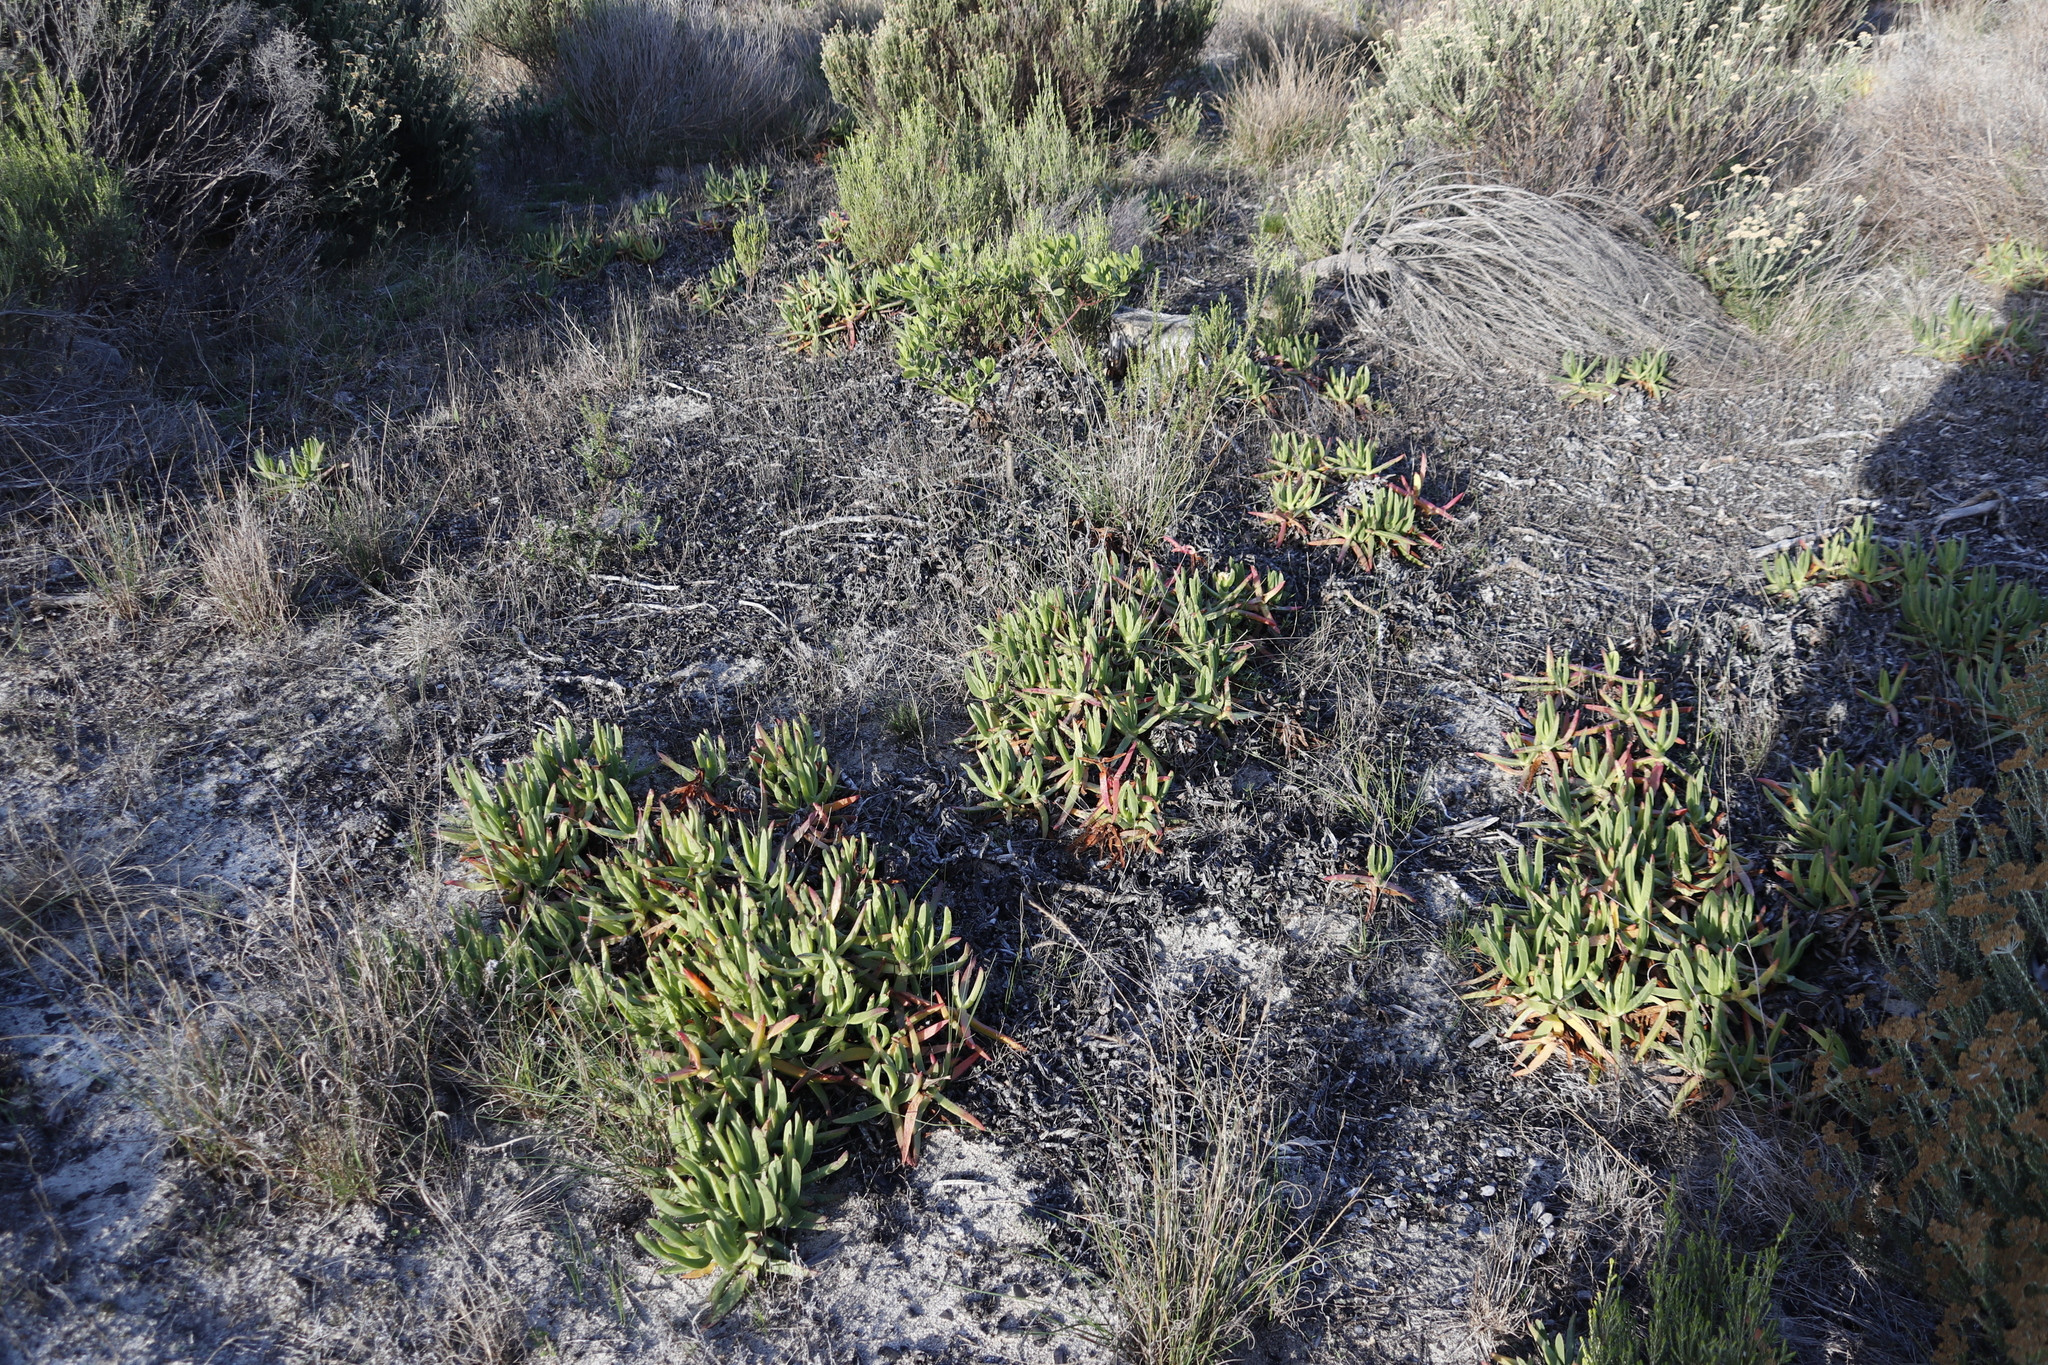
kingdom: Plantae
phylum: Tracheophyta
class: Magnoliopsida
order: Caryophyllales
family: Aizoaceae
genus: Carpobrotus
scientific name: Carpobrotus edulis
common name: Hottentot-fig
